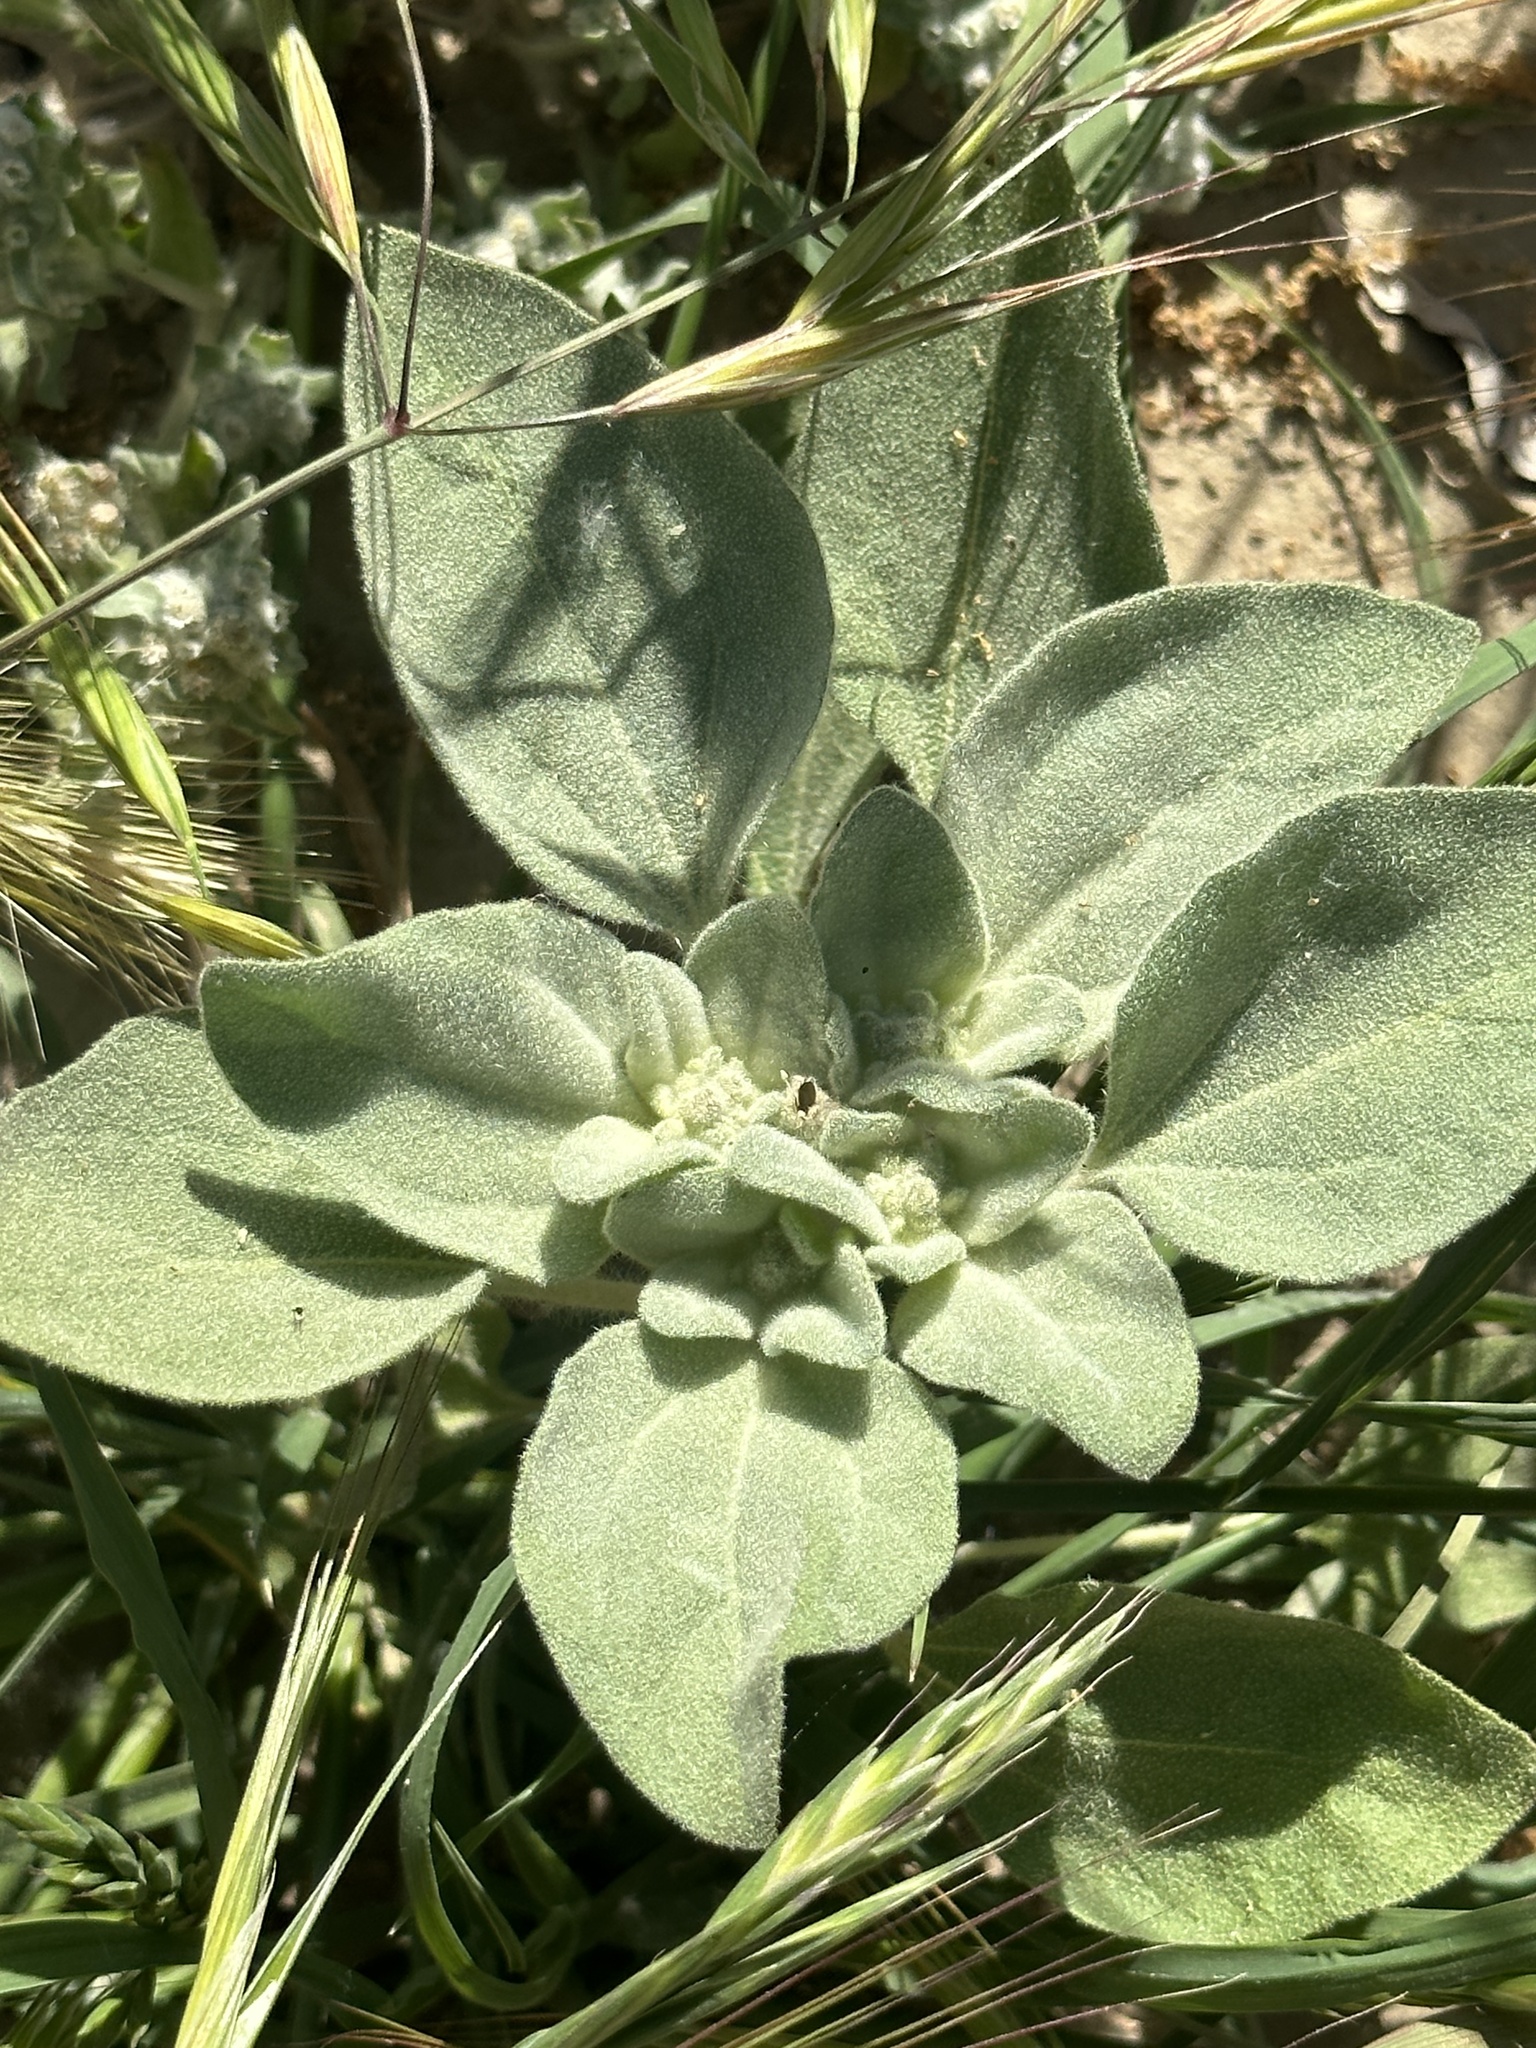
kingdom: Plantae
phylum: Tracheophyta
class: Magnoliopsida
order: Malpighiales
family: Euphorbiaceae
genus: Croton
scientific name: Croton setiger
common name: Dove weed
